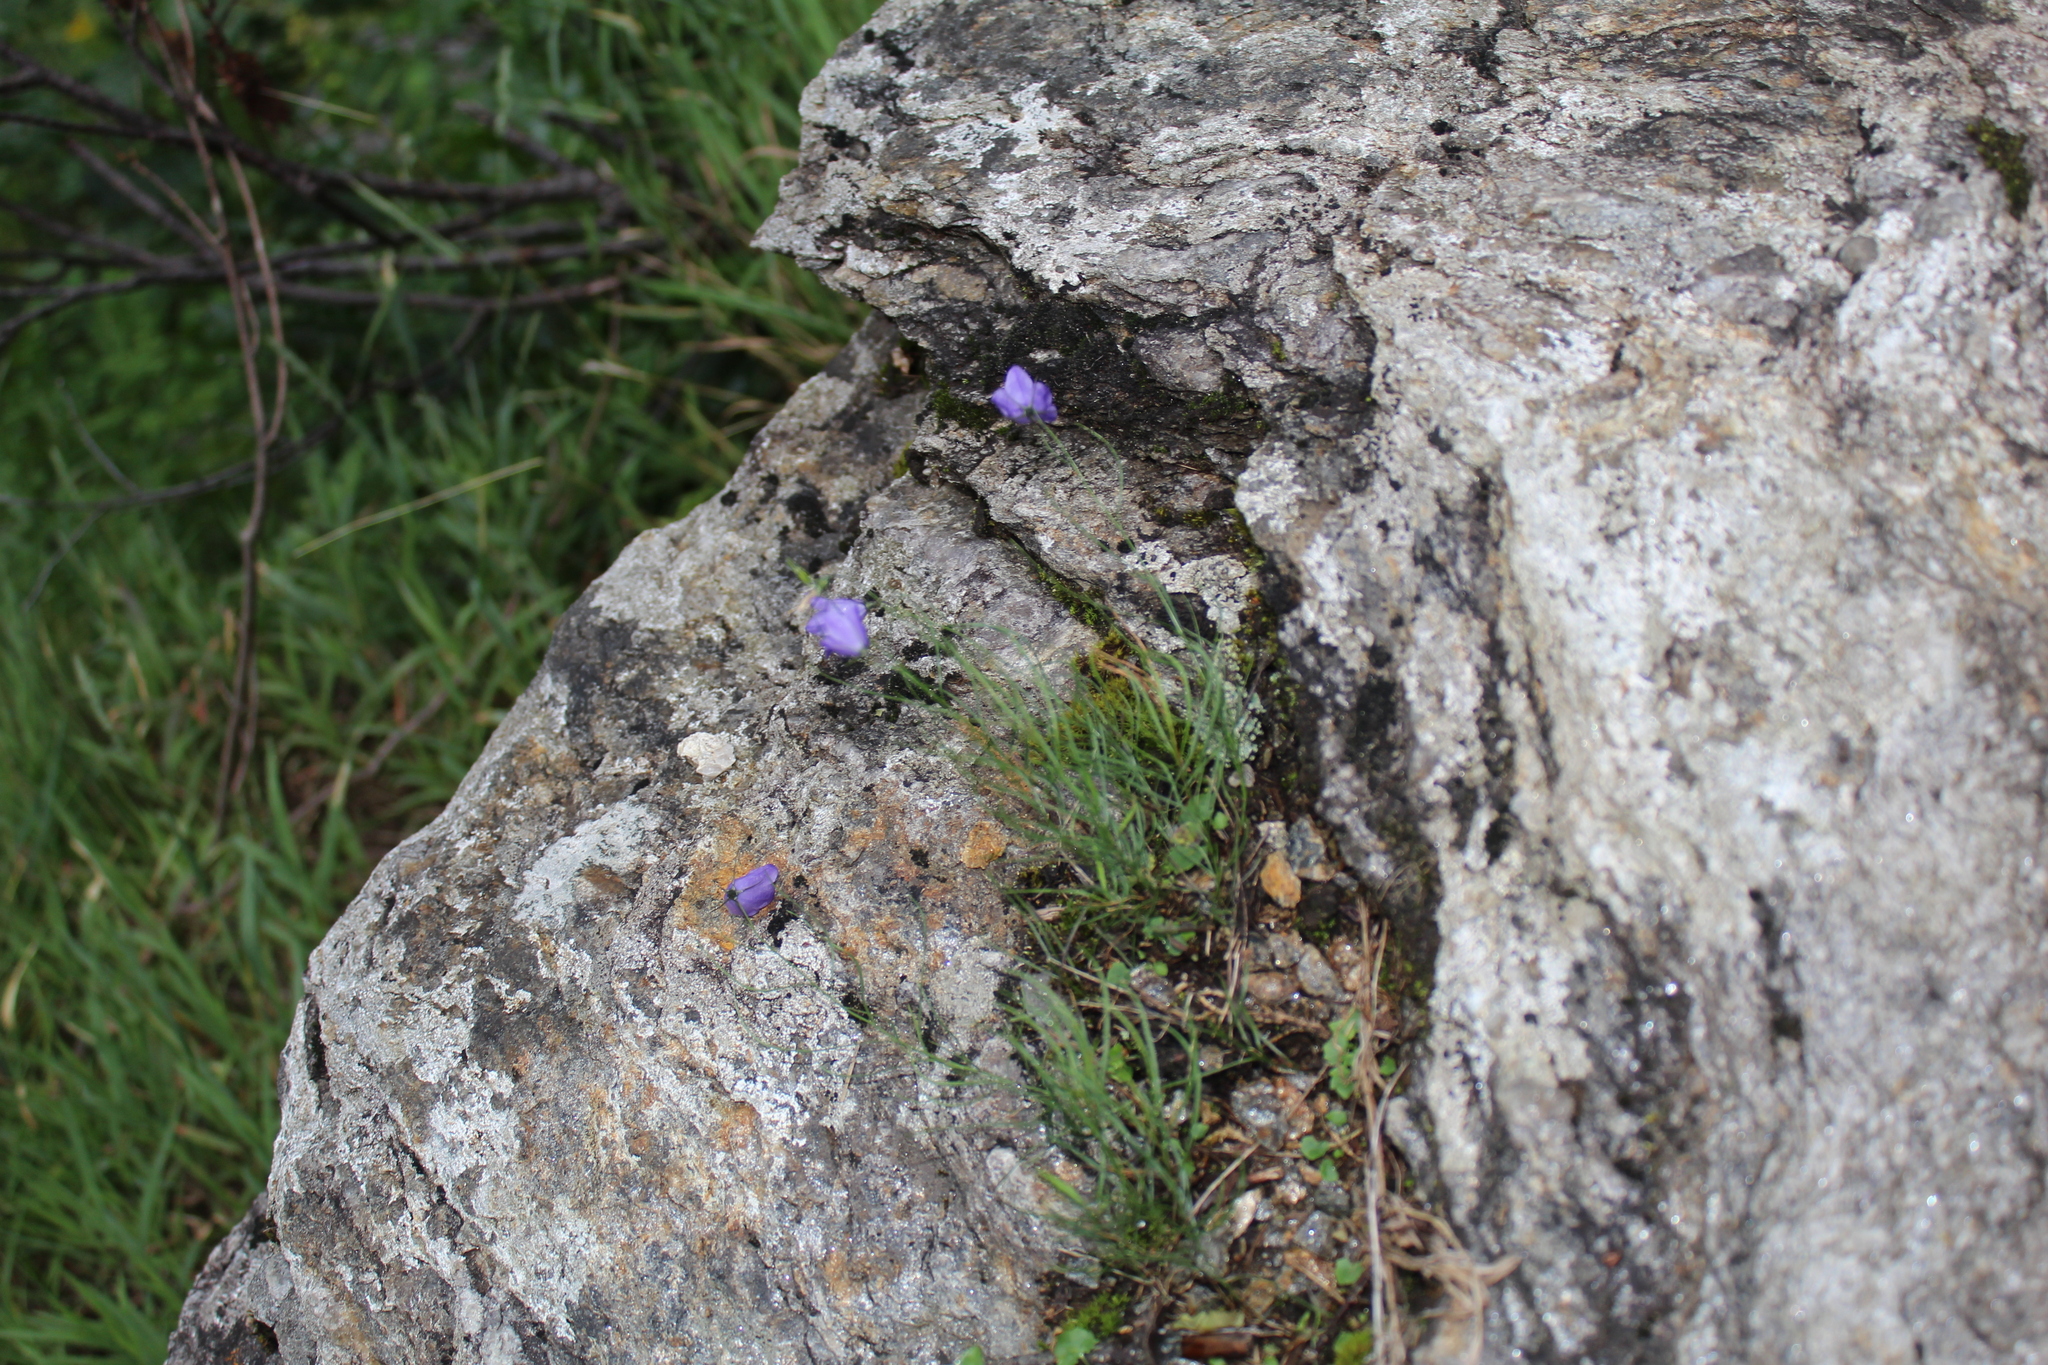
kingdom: Plantae
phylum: Tracheophyta
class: Magnoliopsida
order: Asterales
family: Campanulaceae
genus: Campanula
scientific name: Campanula intercedens
